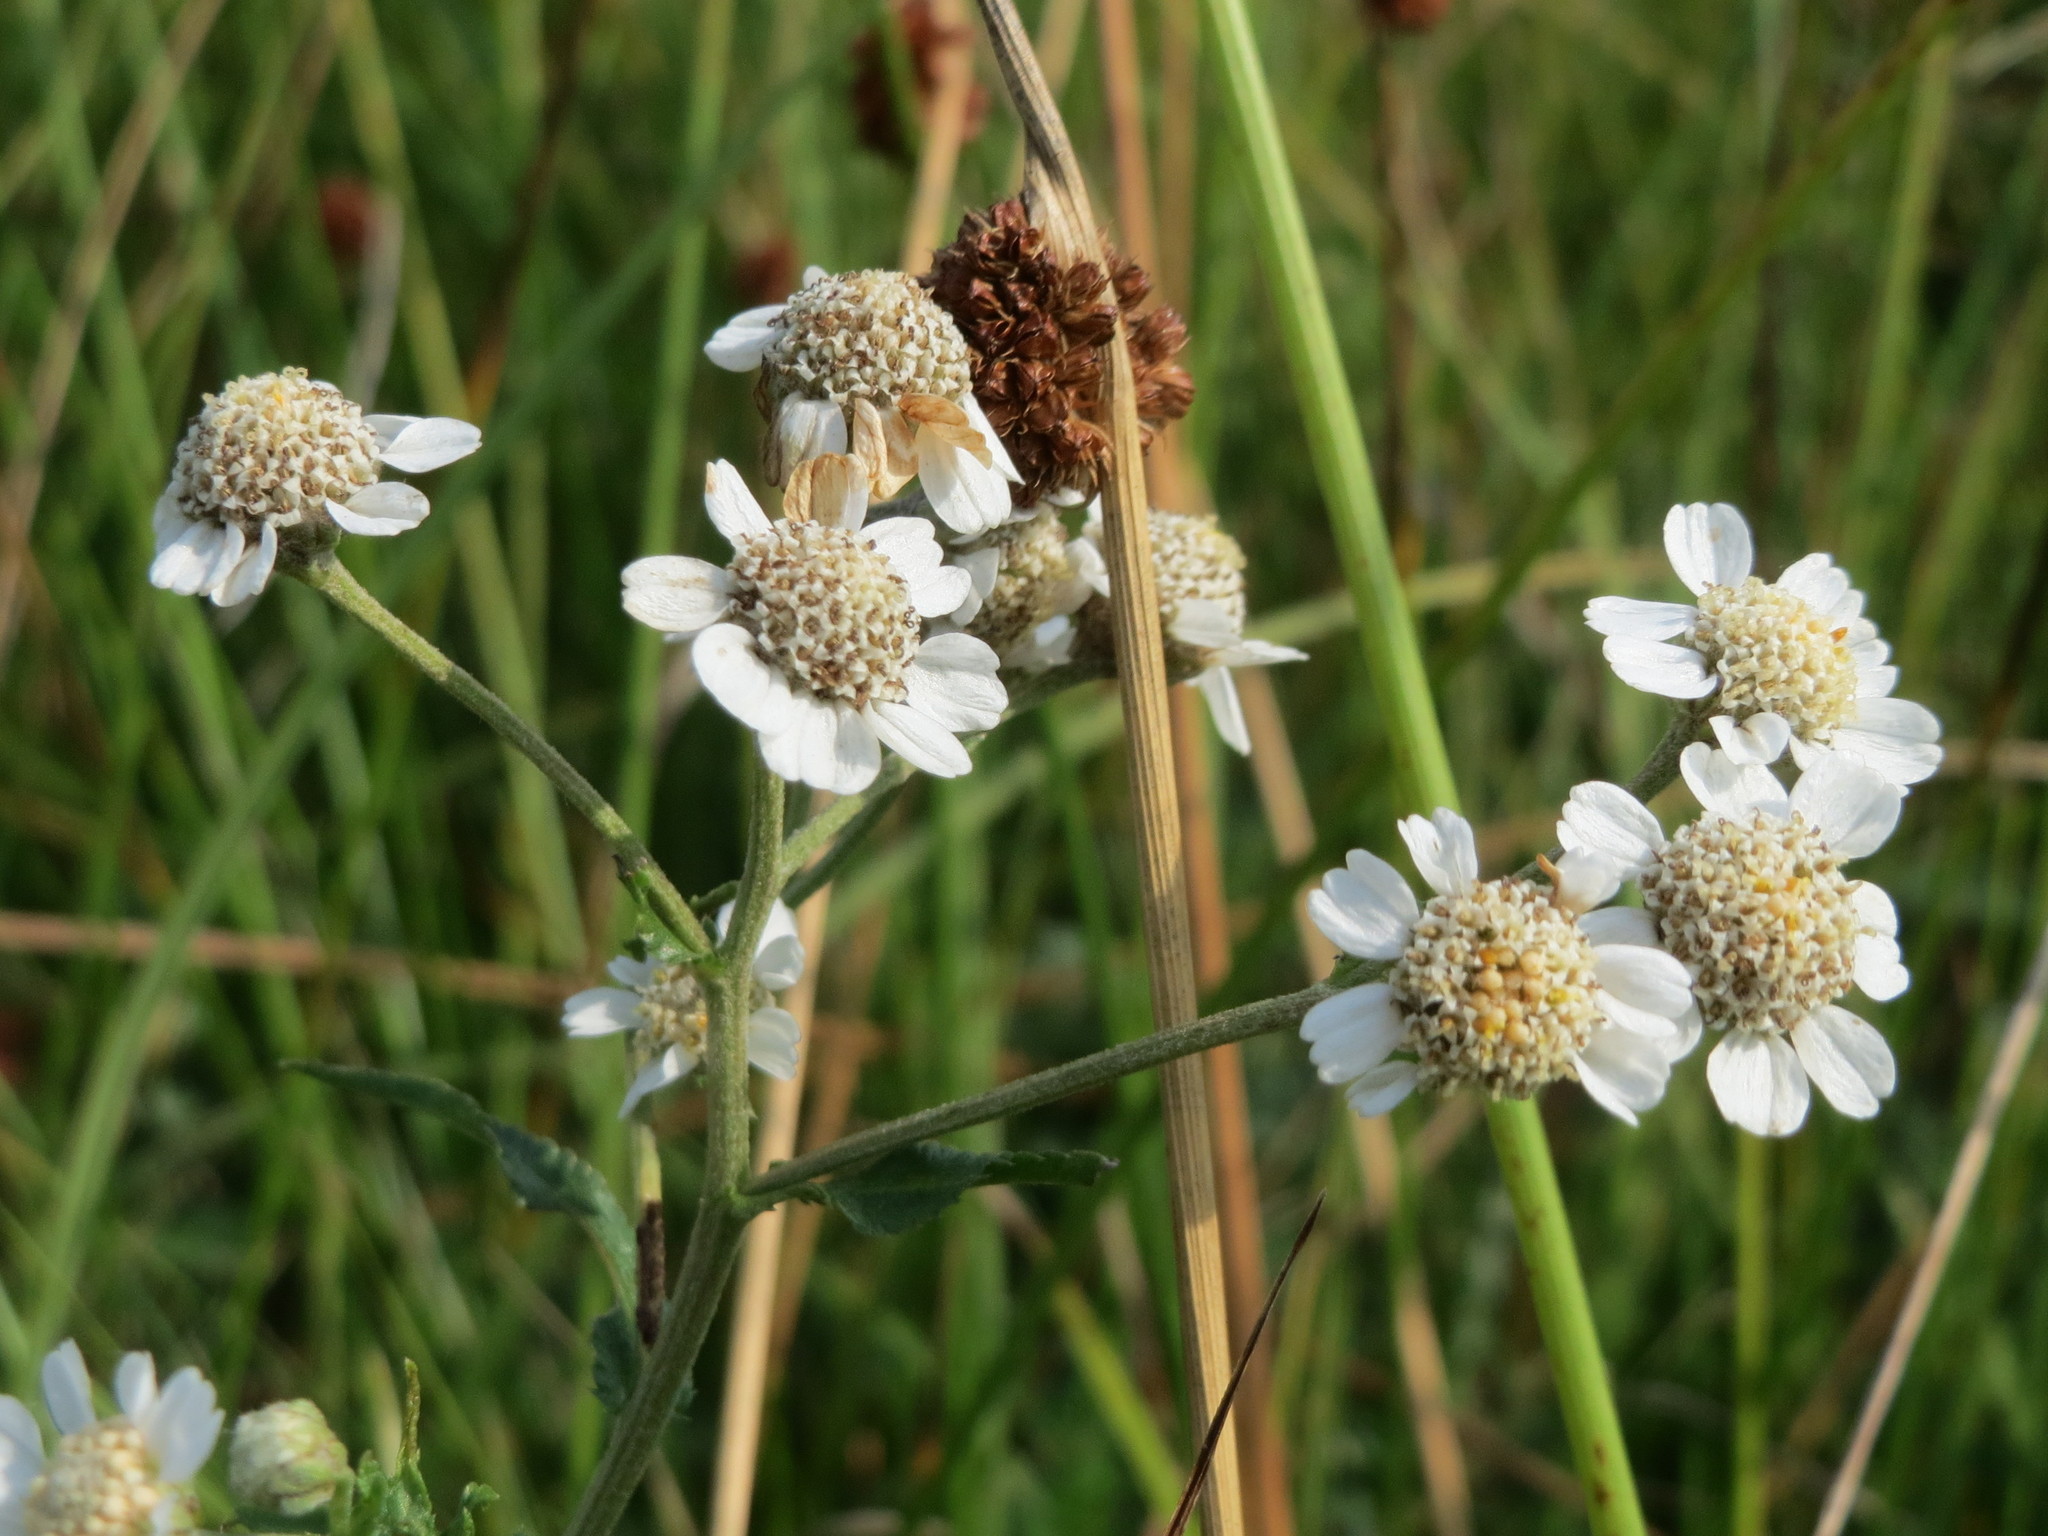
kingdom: Plantae
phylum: Tracheophyta
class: Magnoliopsida
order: Asterales
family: Asteraceae
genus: Achillea
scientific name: Achillea ptarmica
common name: Sneezeweed
